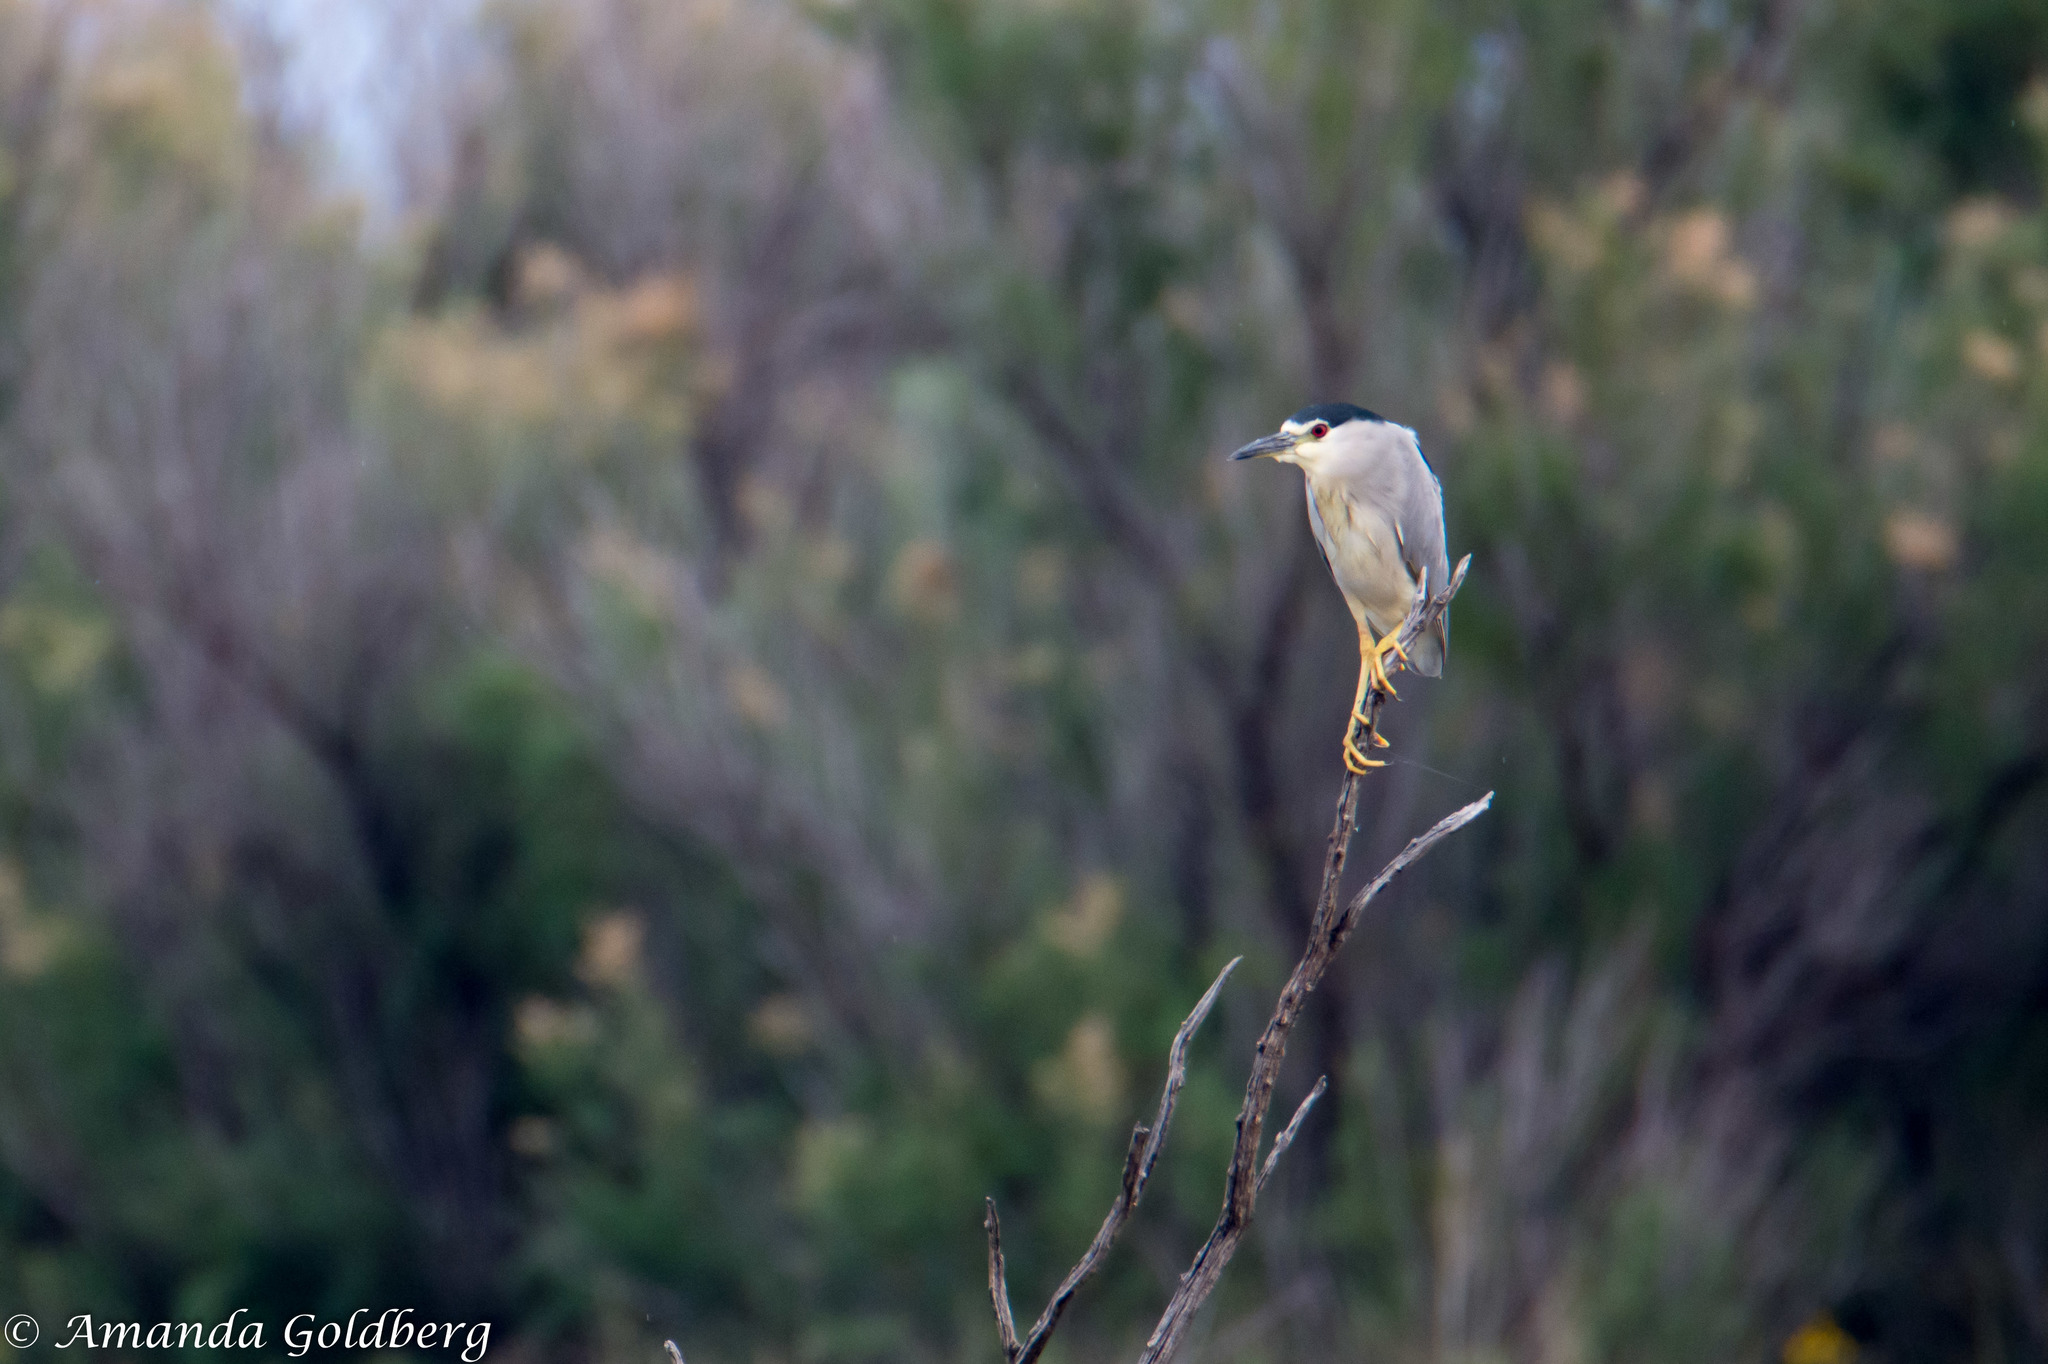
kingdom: Animalia
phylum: Chordata
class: Aves
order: Pelecaniformes
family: Ardeidae
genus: Nycticorax
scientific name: Nycticorax nycticorax
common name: Black-crowned night heron
